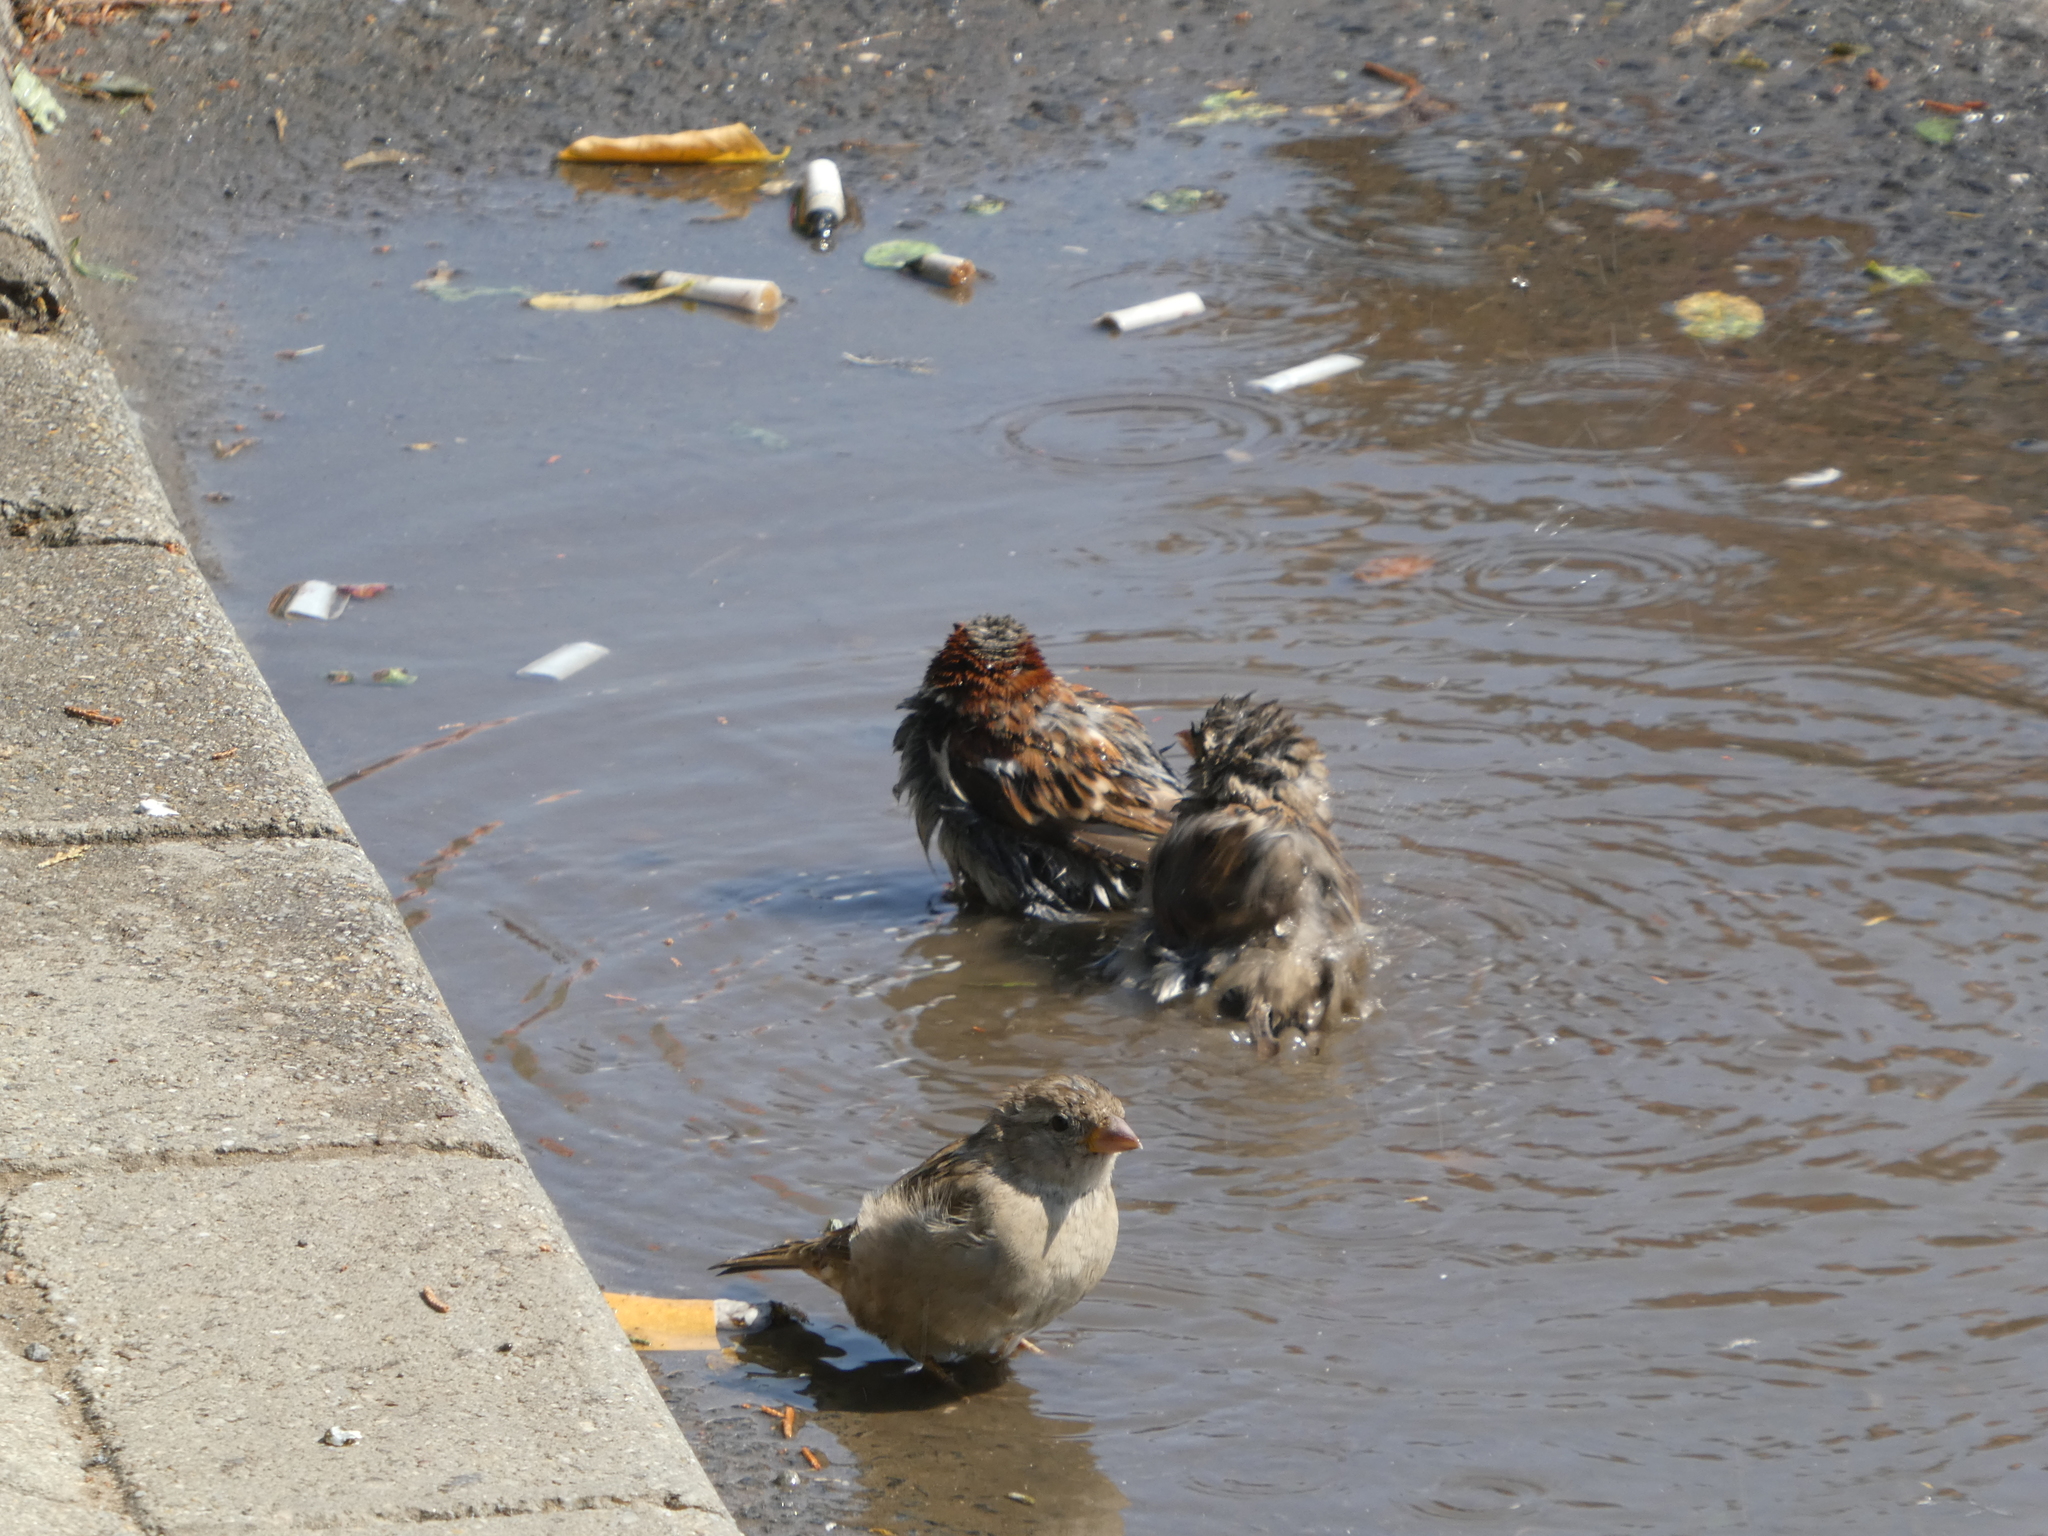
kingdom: Animalia
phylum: Chordata
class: Aves
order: Passeriformes
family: Passeridae
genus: Passer
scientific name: Passer domesticus
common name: House sparrow
